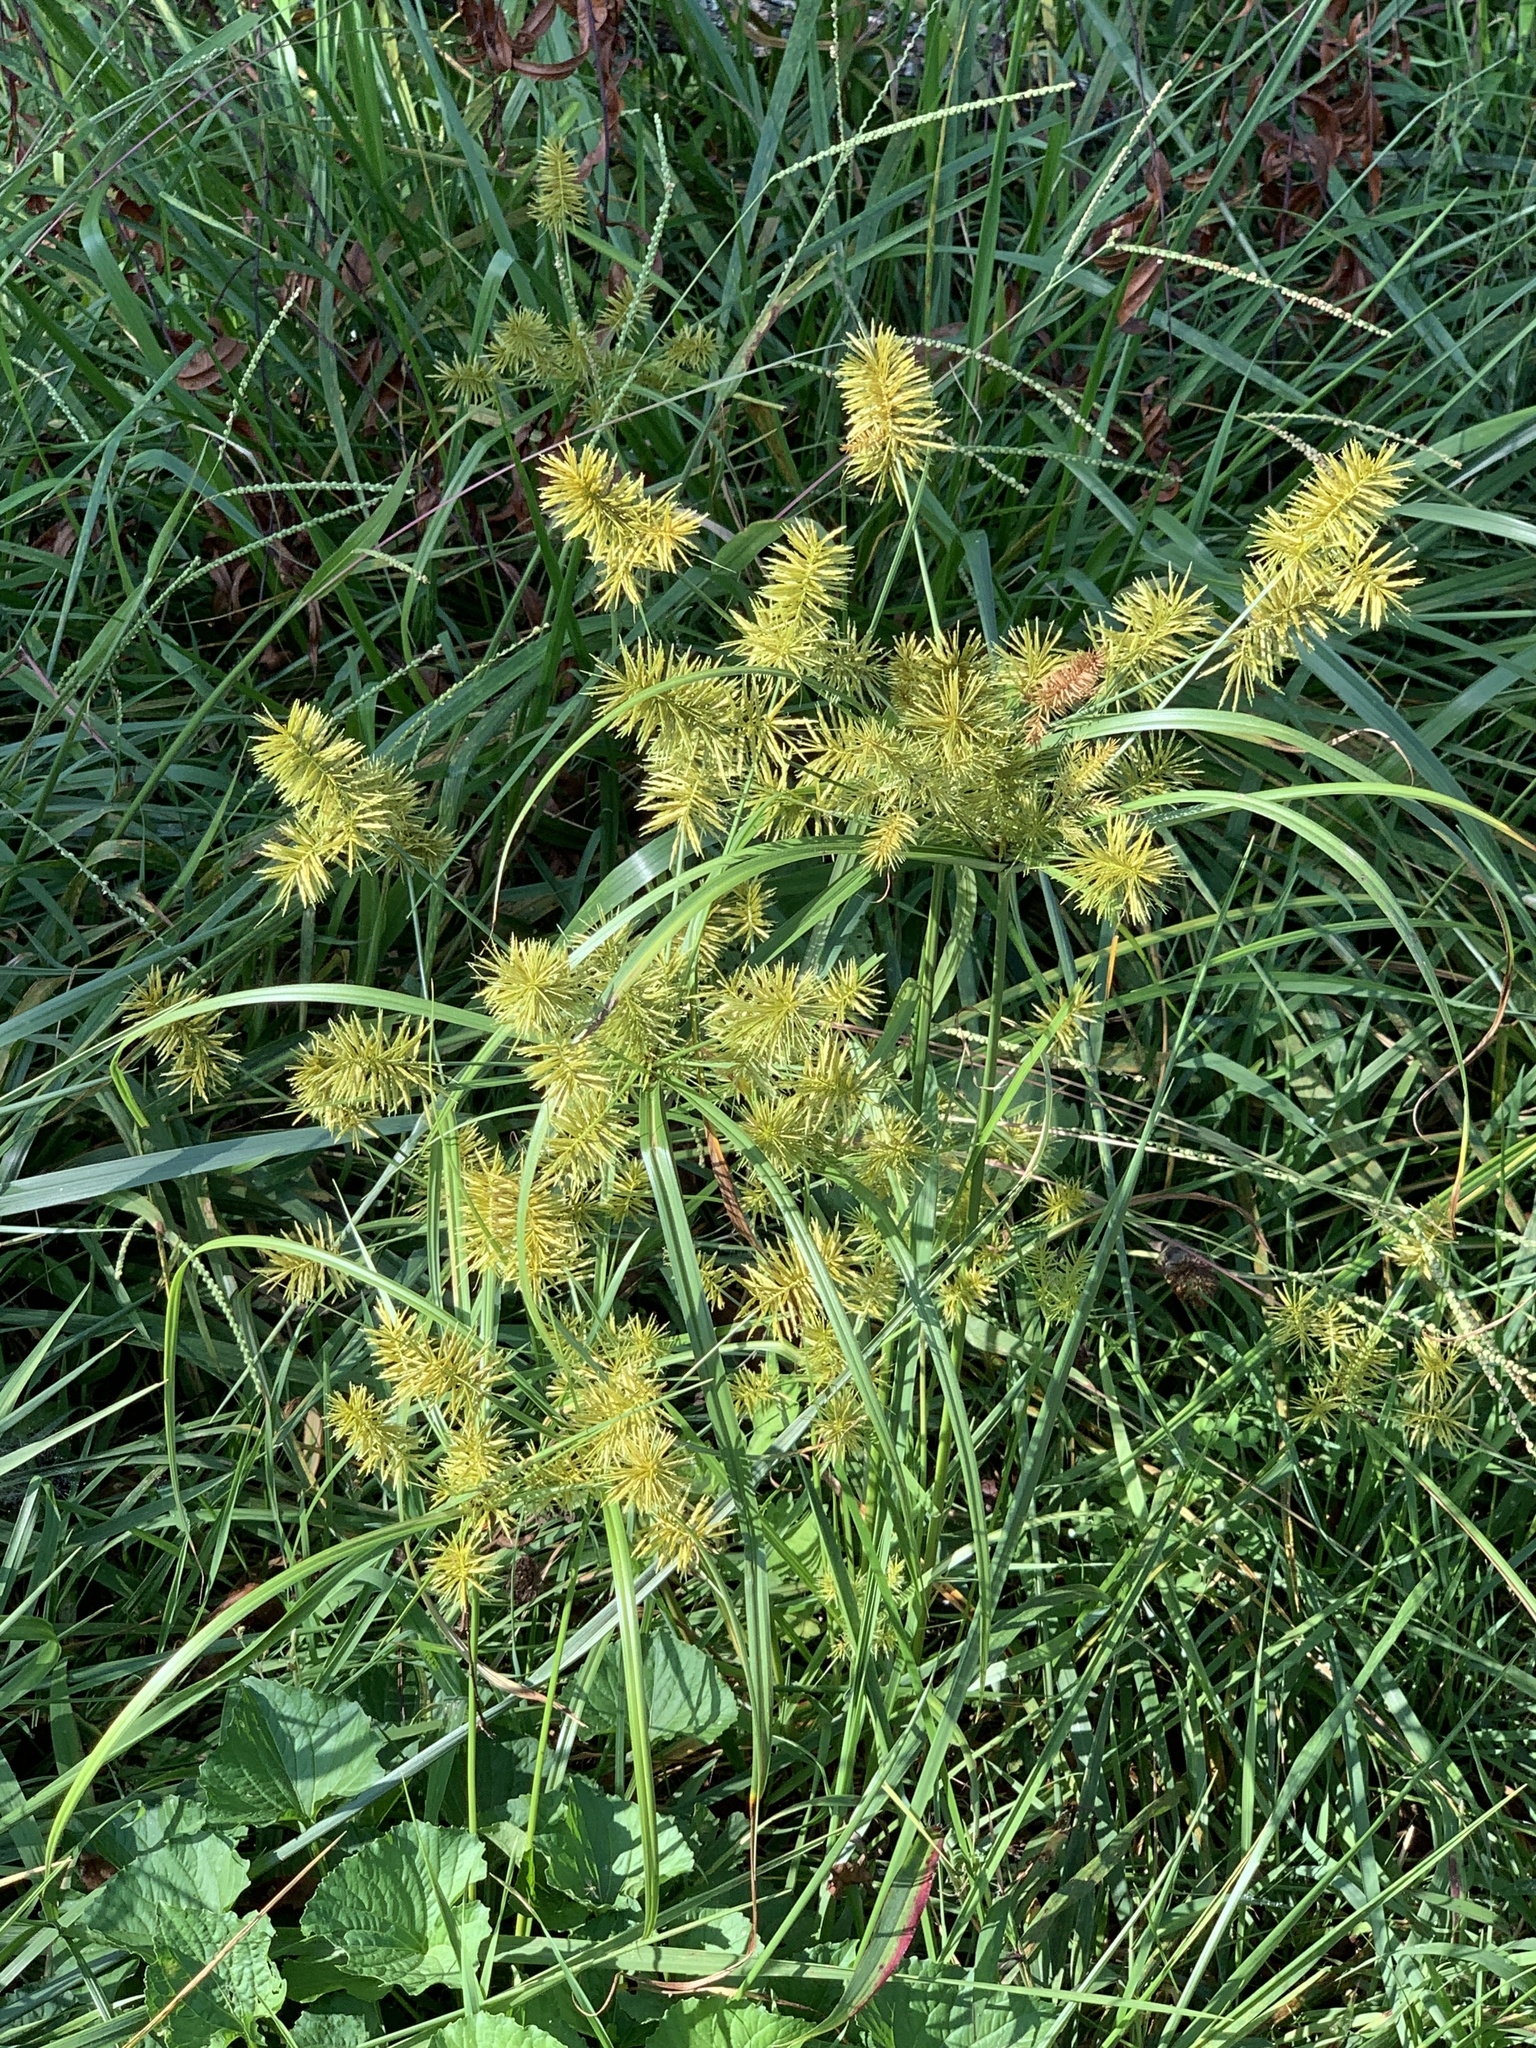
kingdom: Plantae
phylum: Tracheophyta
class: Liliopsida
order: Poales
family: Cyperaceae
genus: Cyperus
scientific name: Cyperus strigosus
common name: False nutsedge
